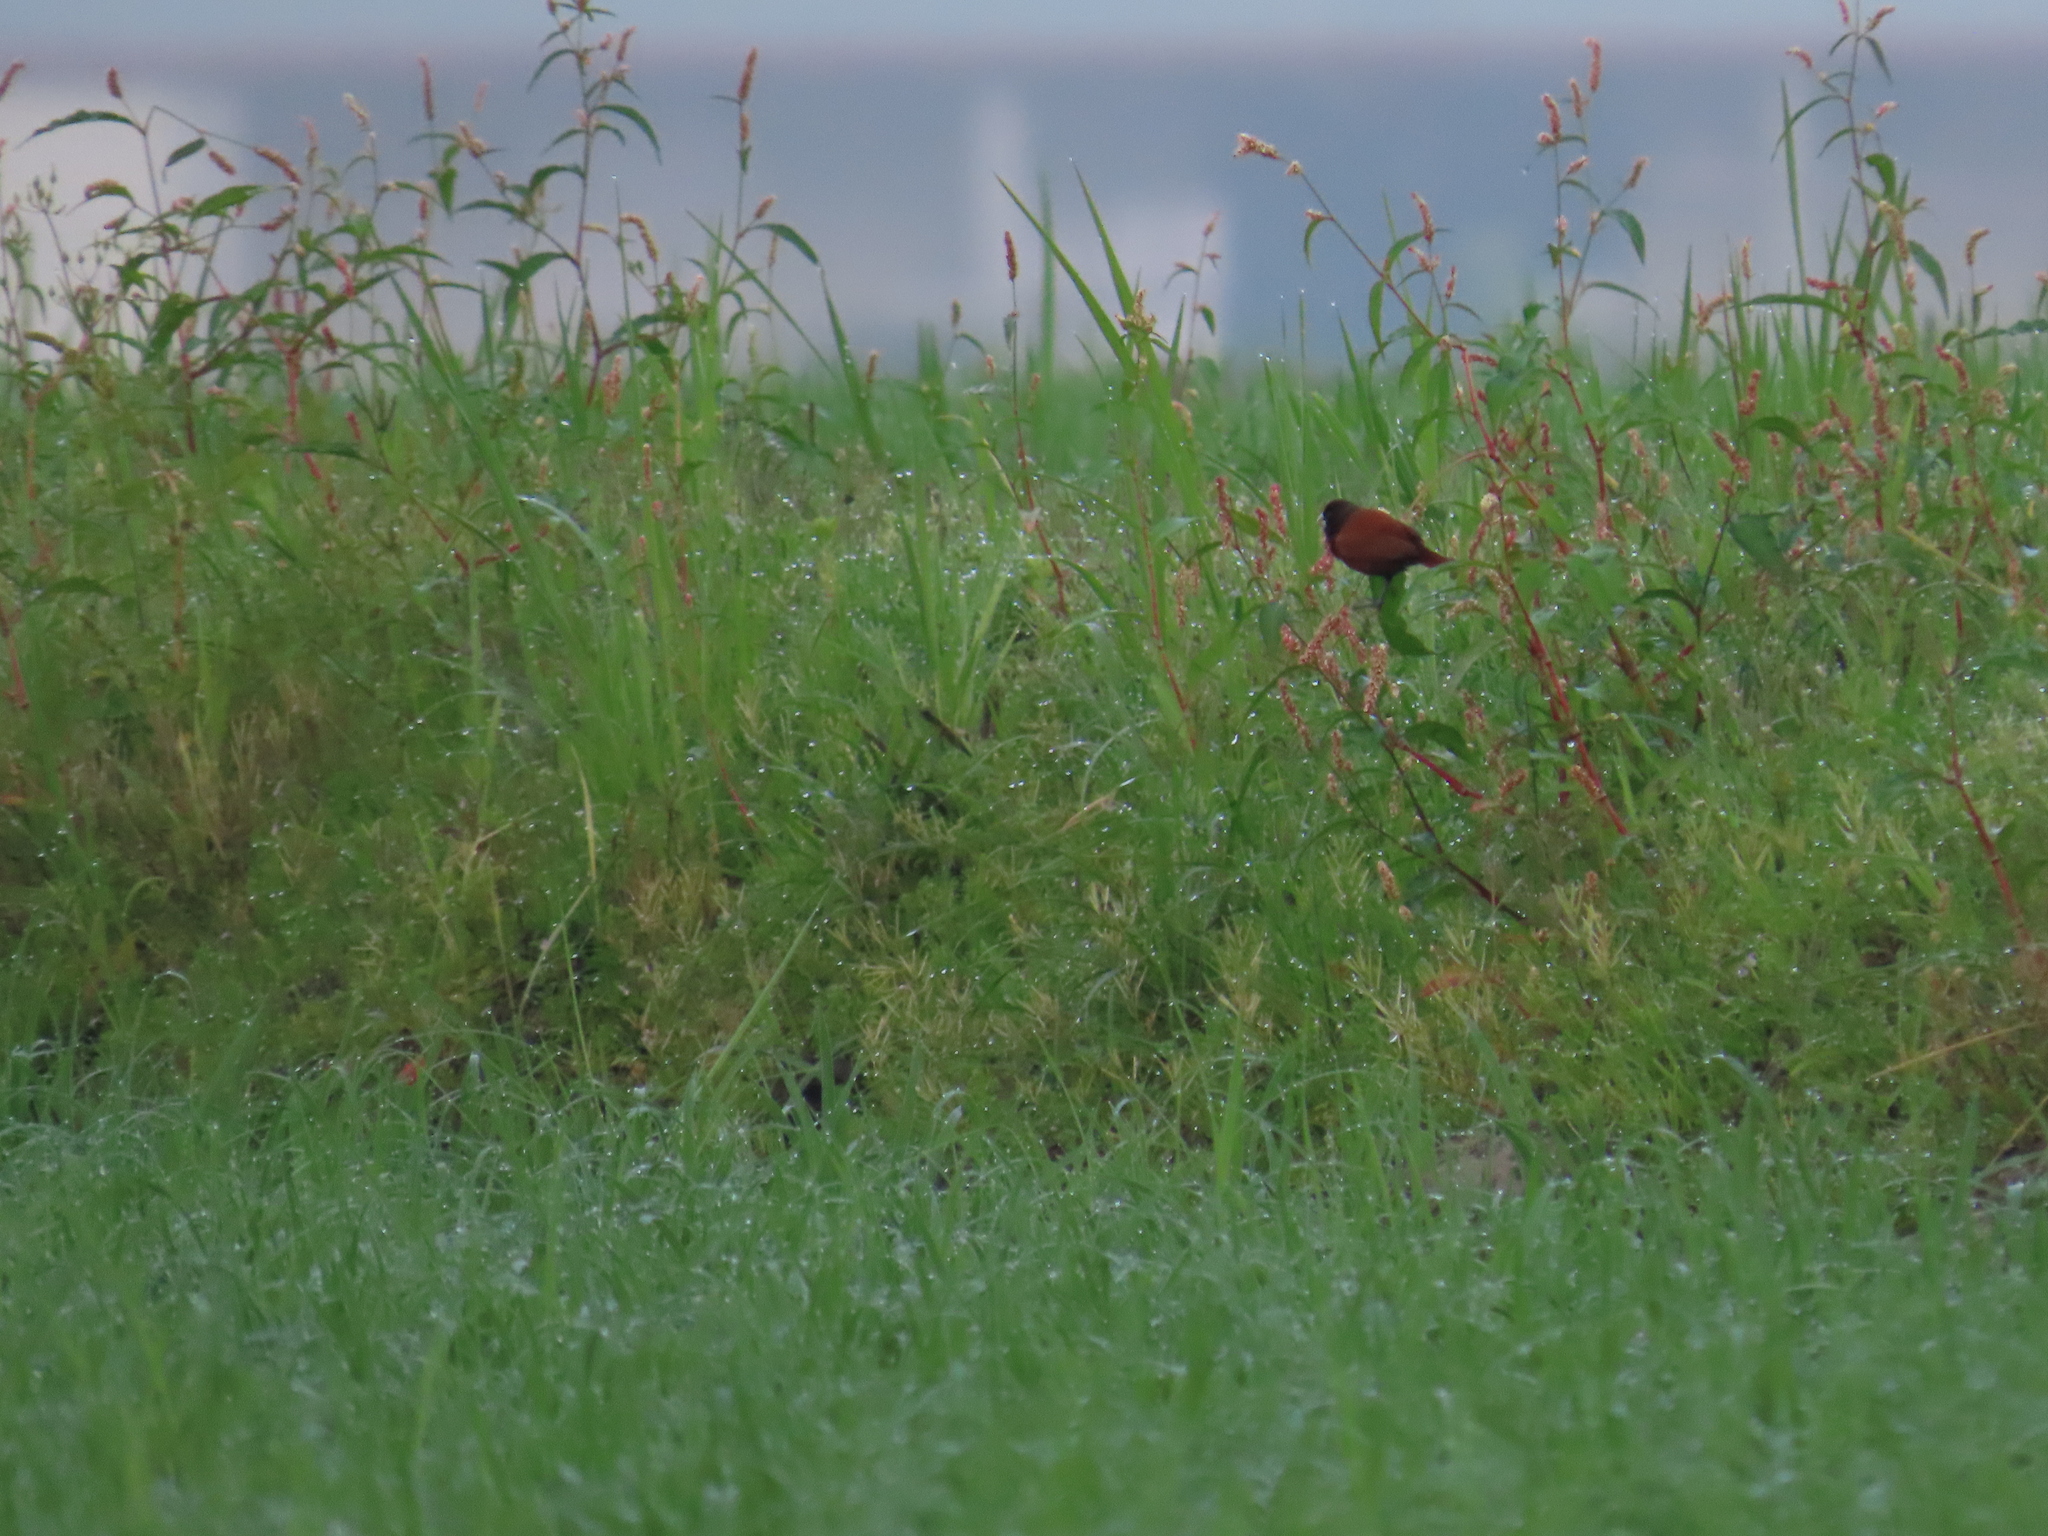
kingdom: Animalia
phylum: Chordata
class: Aves
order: Passeriformes
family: Estrildidae
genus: Lonchura
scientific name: Lonchura atricapilla
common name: Chestnut munia
